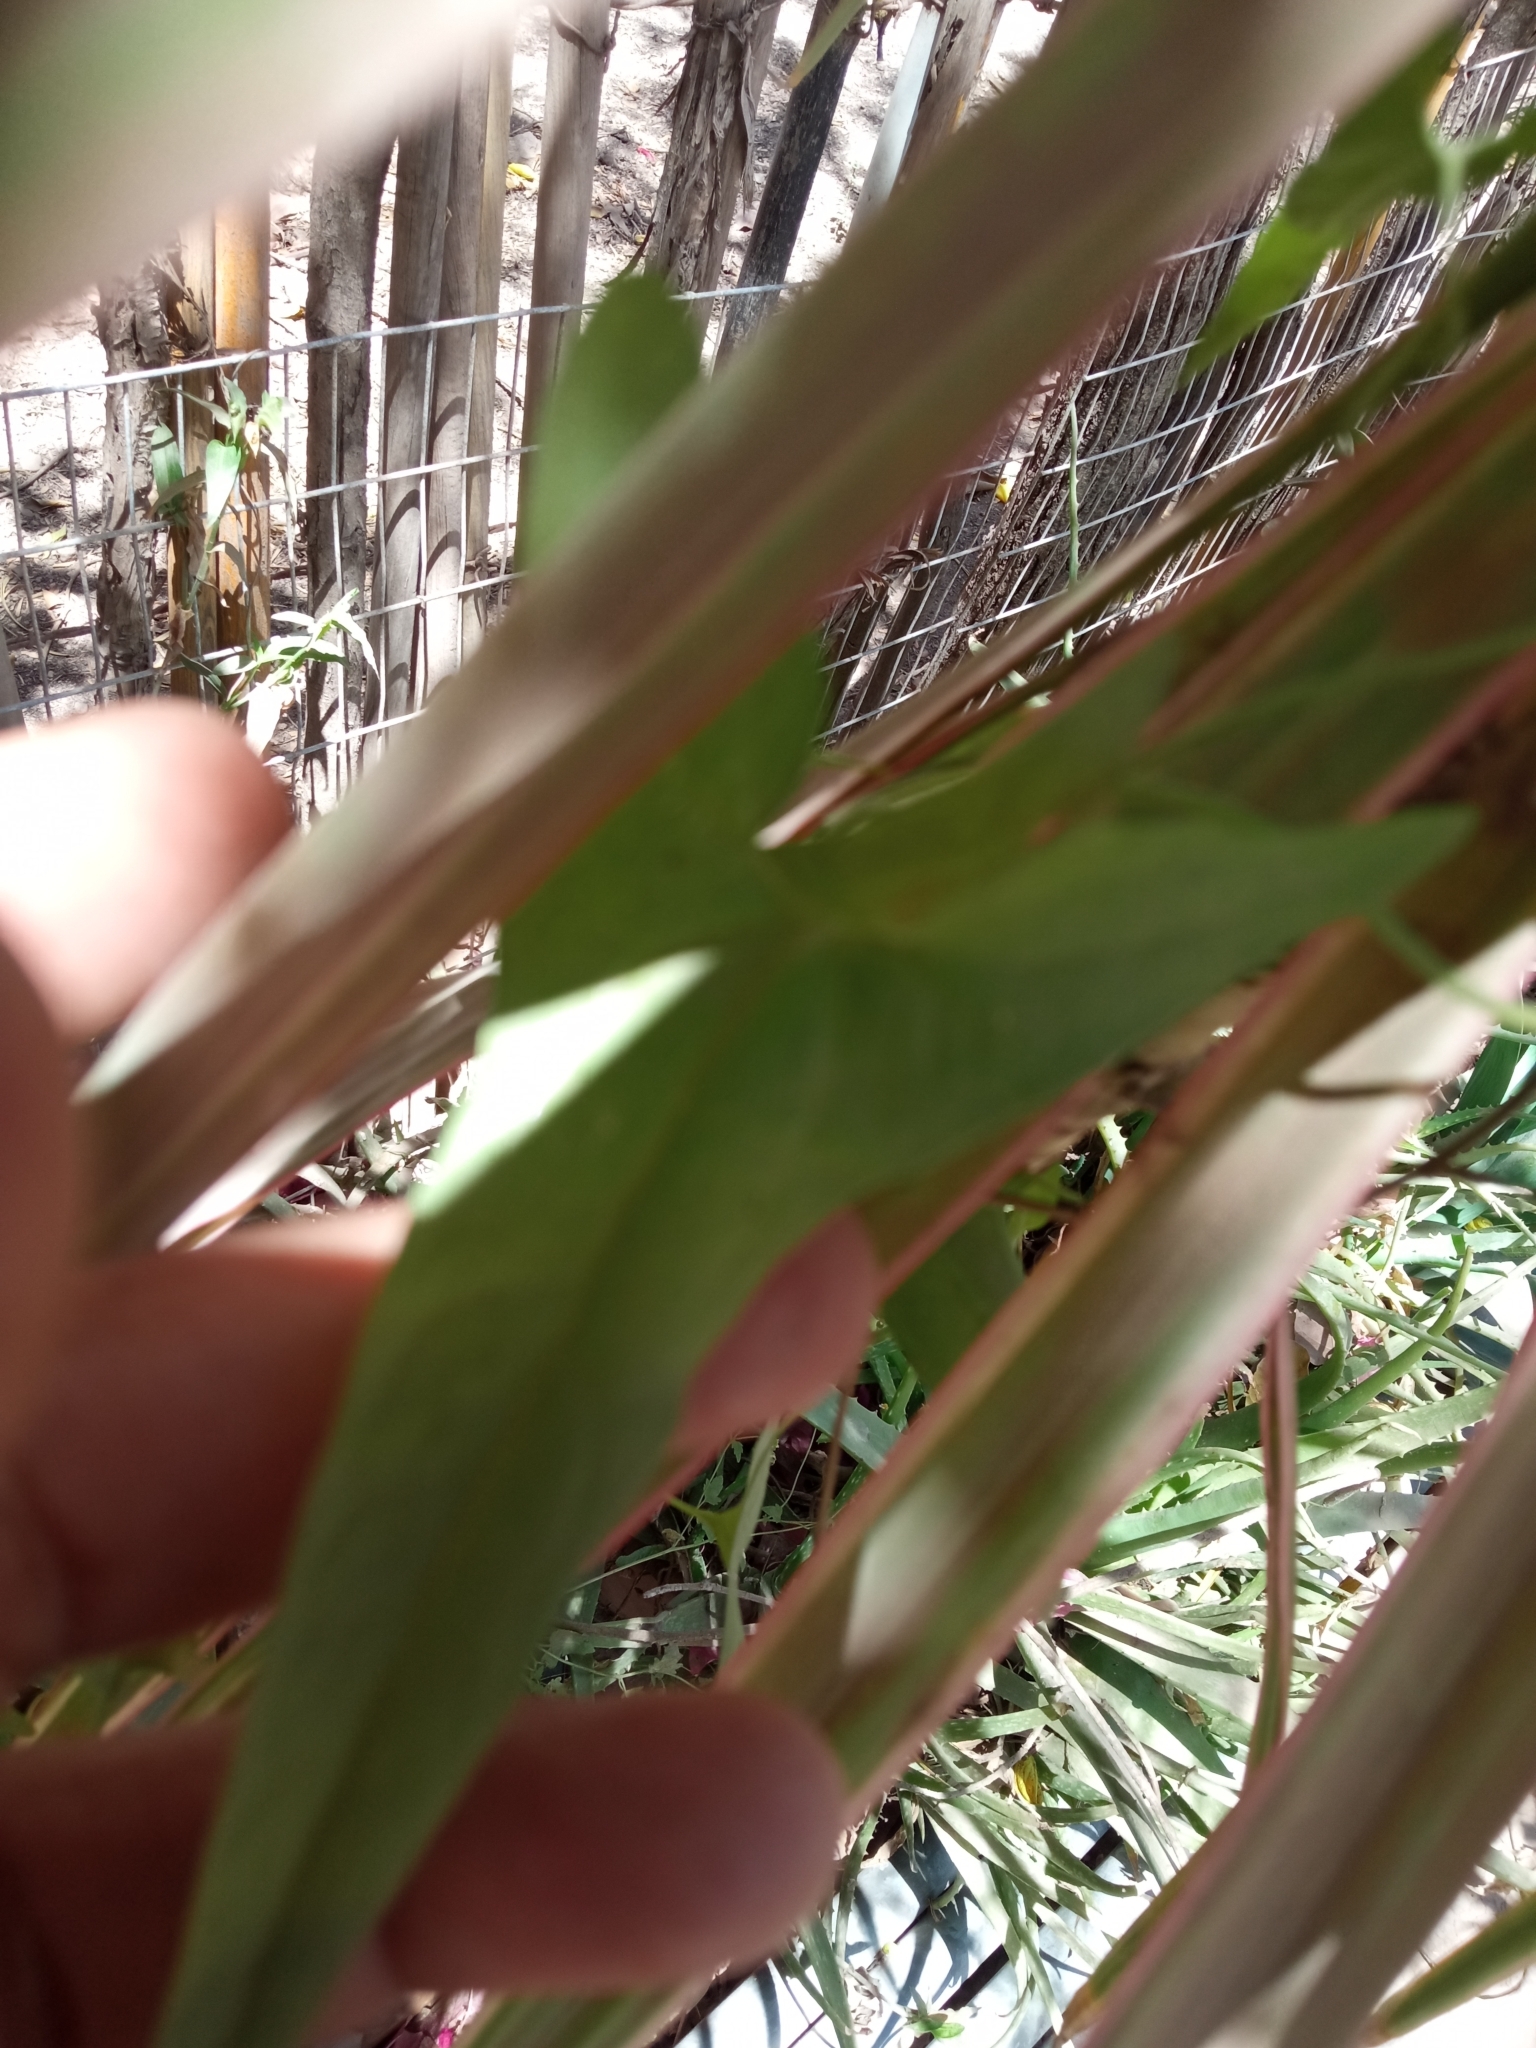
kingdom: Plantae
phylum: Tracheophyta
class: Magnoliopsida
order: Piperales
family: Aristolochiaceae
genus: Aristolochia
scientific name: Aristolochia watsonii
